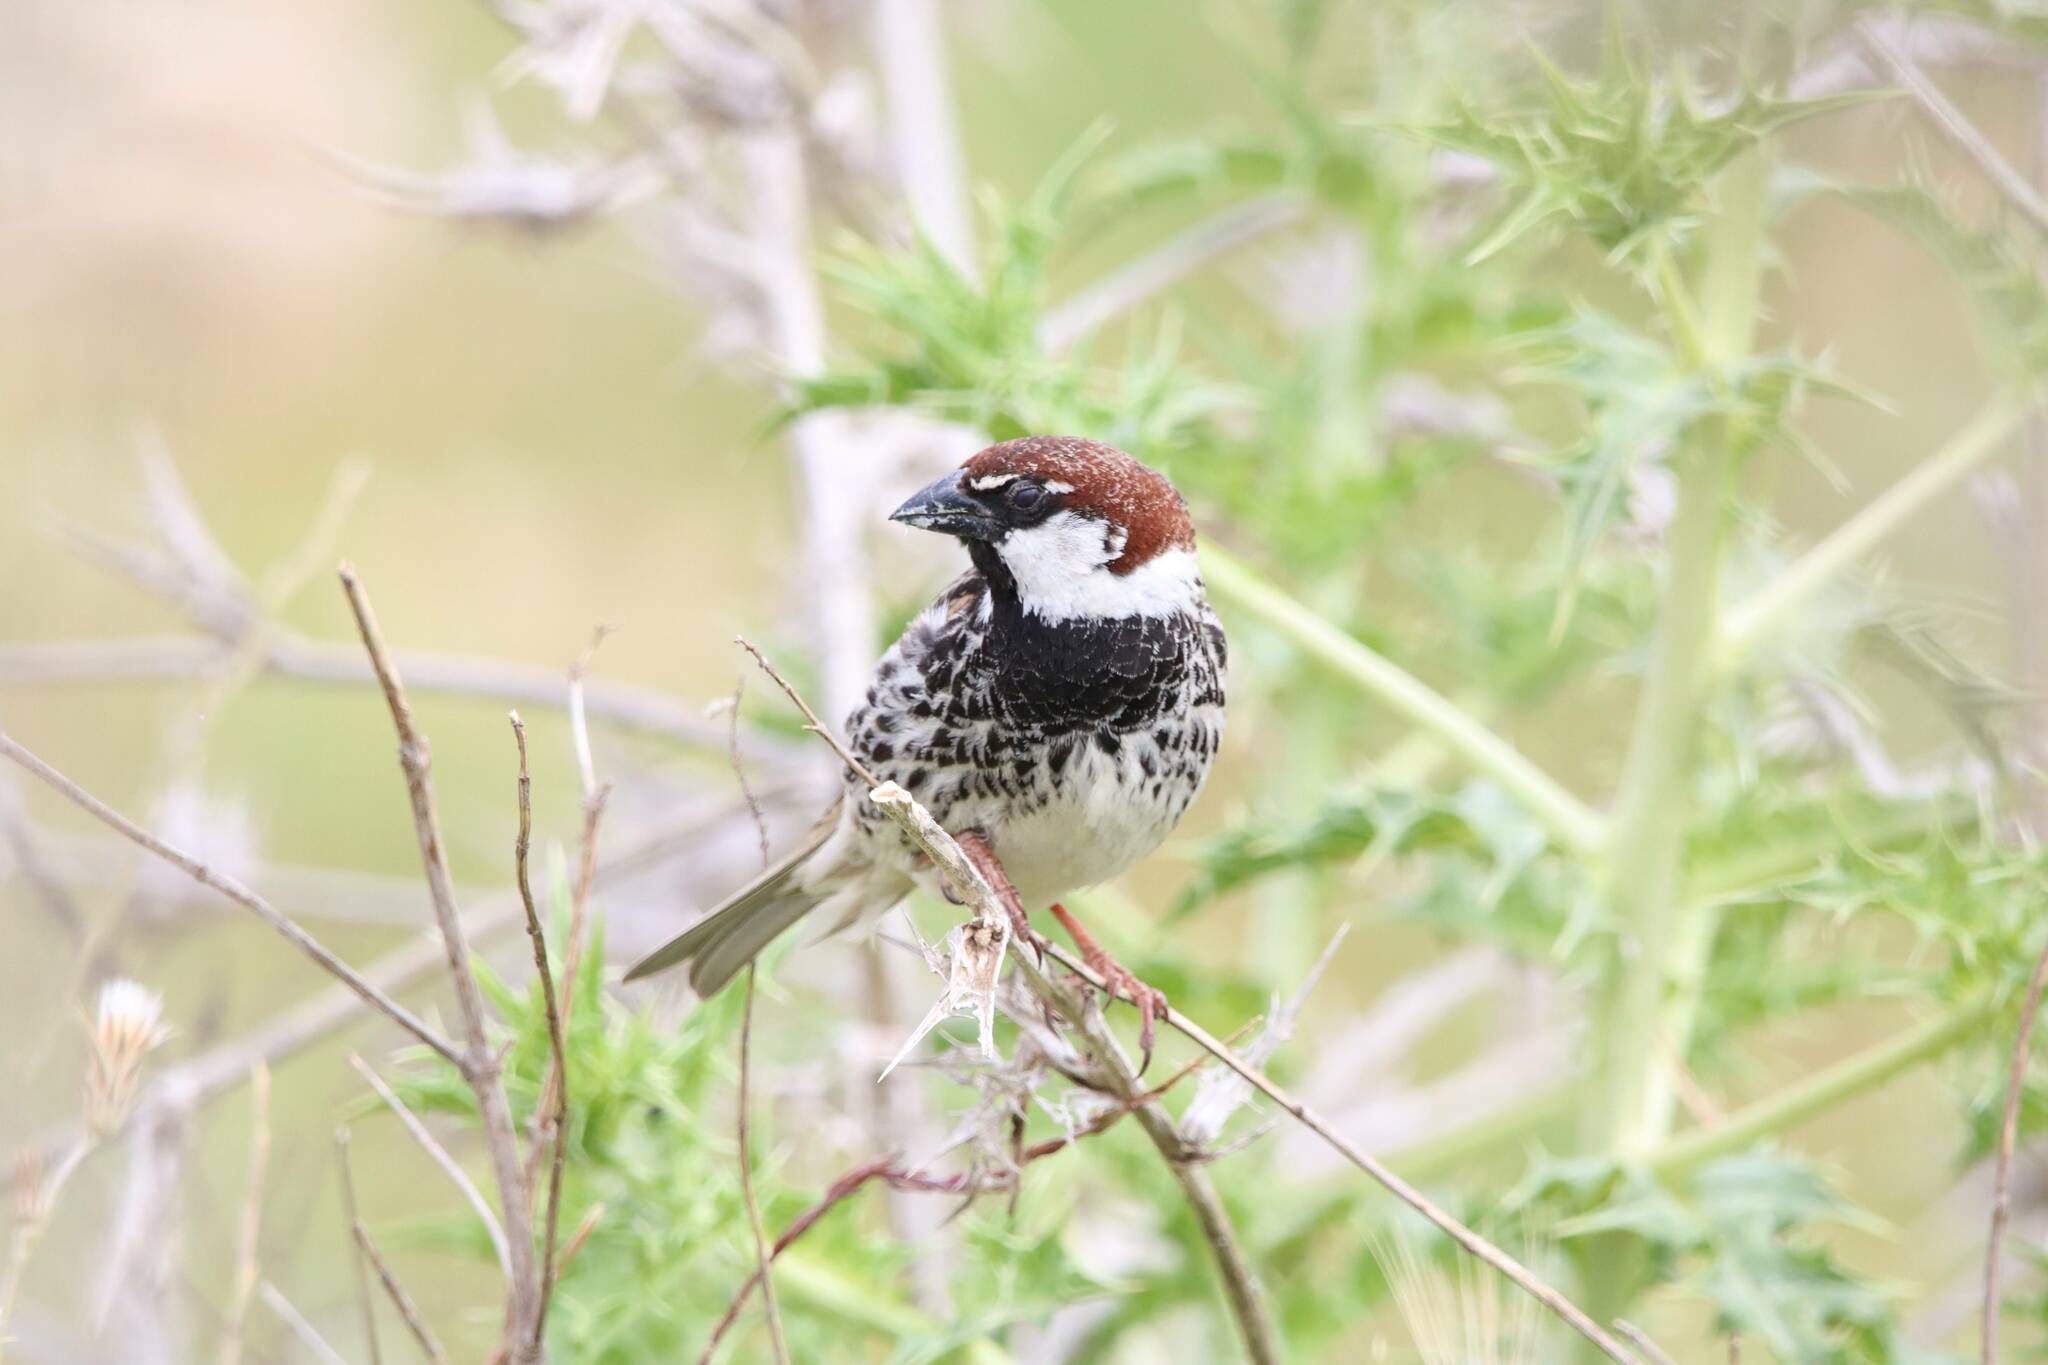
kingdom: Animalia
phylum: Chordata
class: Aves
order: Passeriformes
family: Passeridae
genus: Passer
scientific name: Passer hispaniolensis
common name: Spanish sparrow
